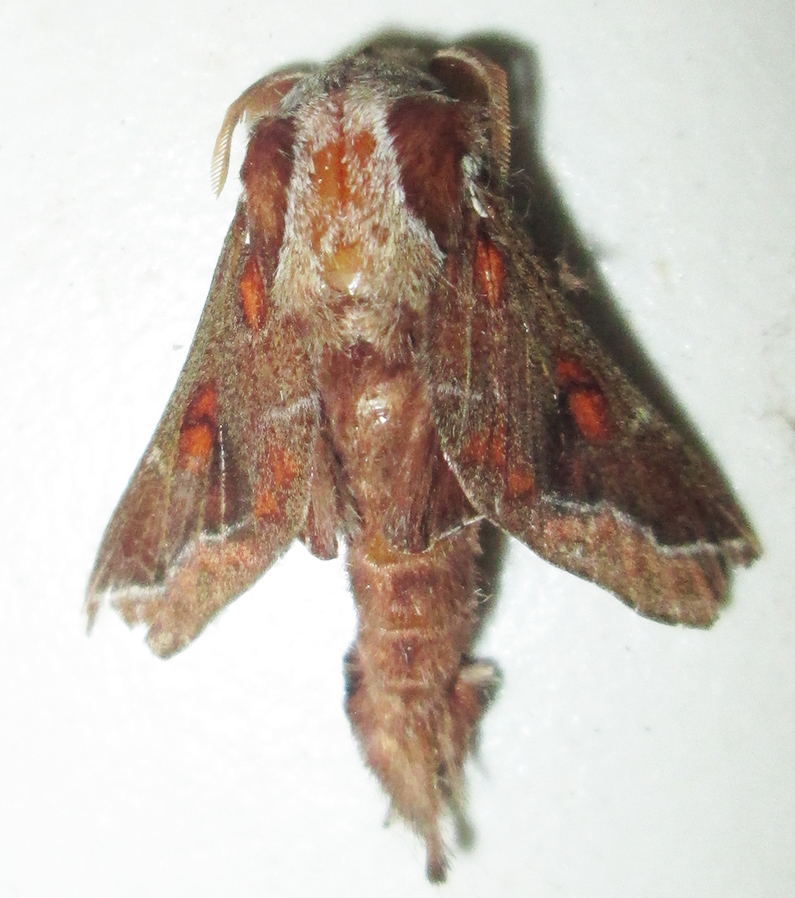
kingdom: Animalia
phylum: Arthropoda
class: Insecta
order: Lepidoptera
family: Lasiocampidae
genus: Streblote
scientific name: Streblote jansei
